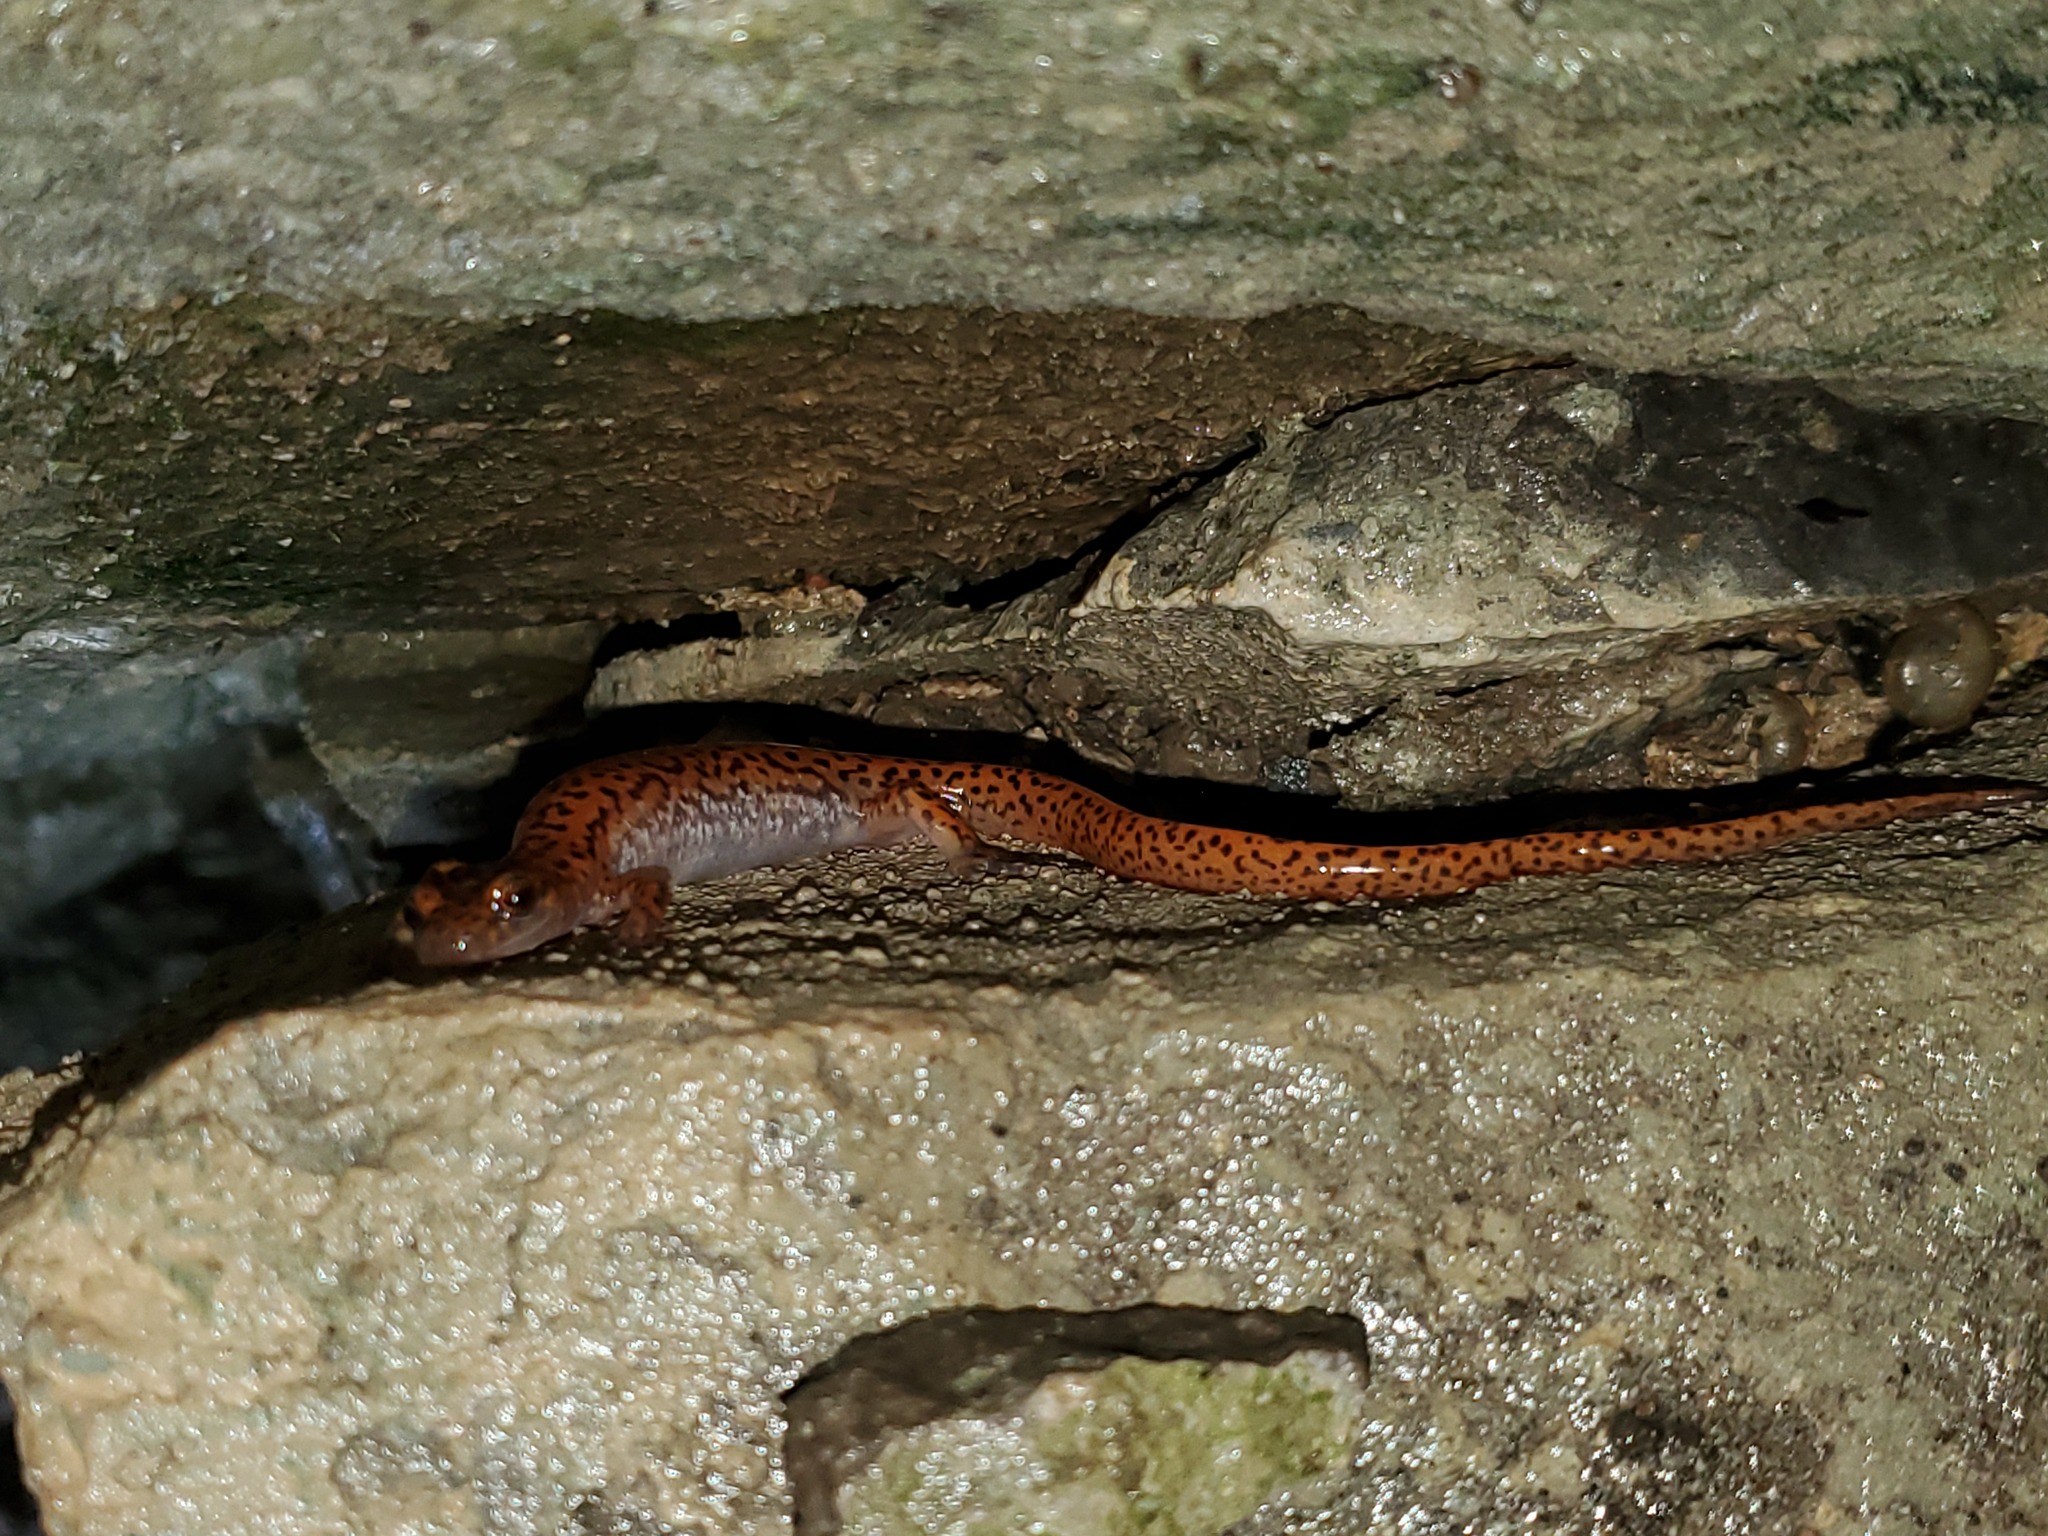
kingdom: Animalia
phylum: Chordata
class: Amphibia
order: Caudata
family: Plethodontidae
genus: Eurycea
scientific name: Eurycea lucifuga
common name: Cave salamander
